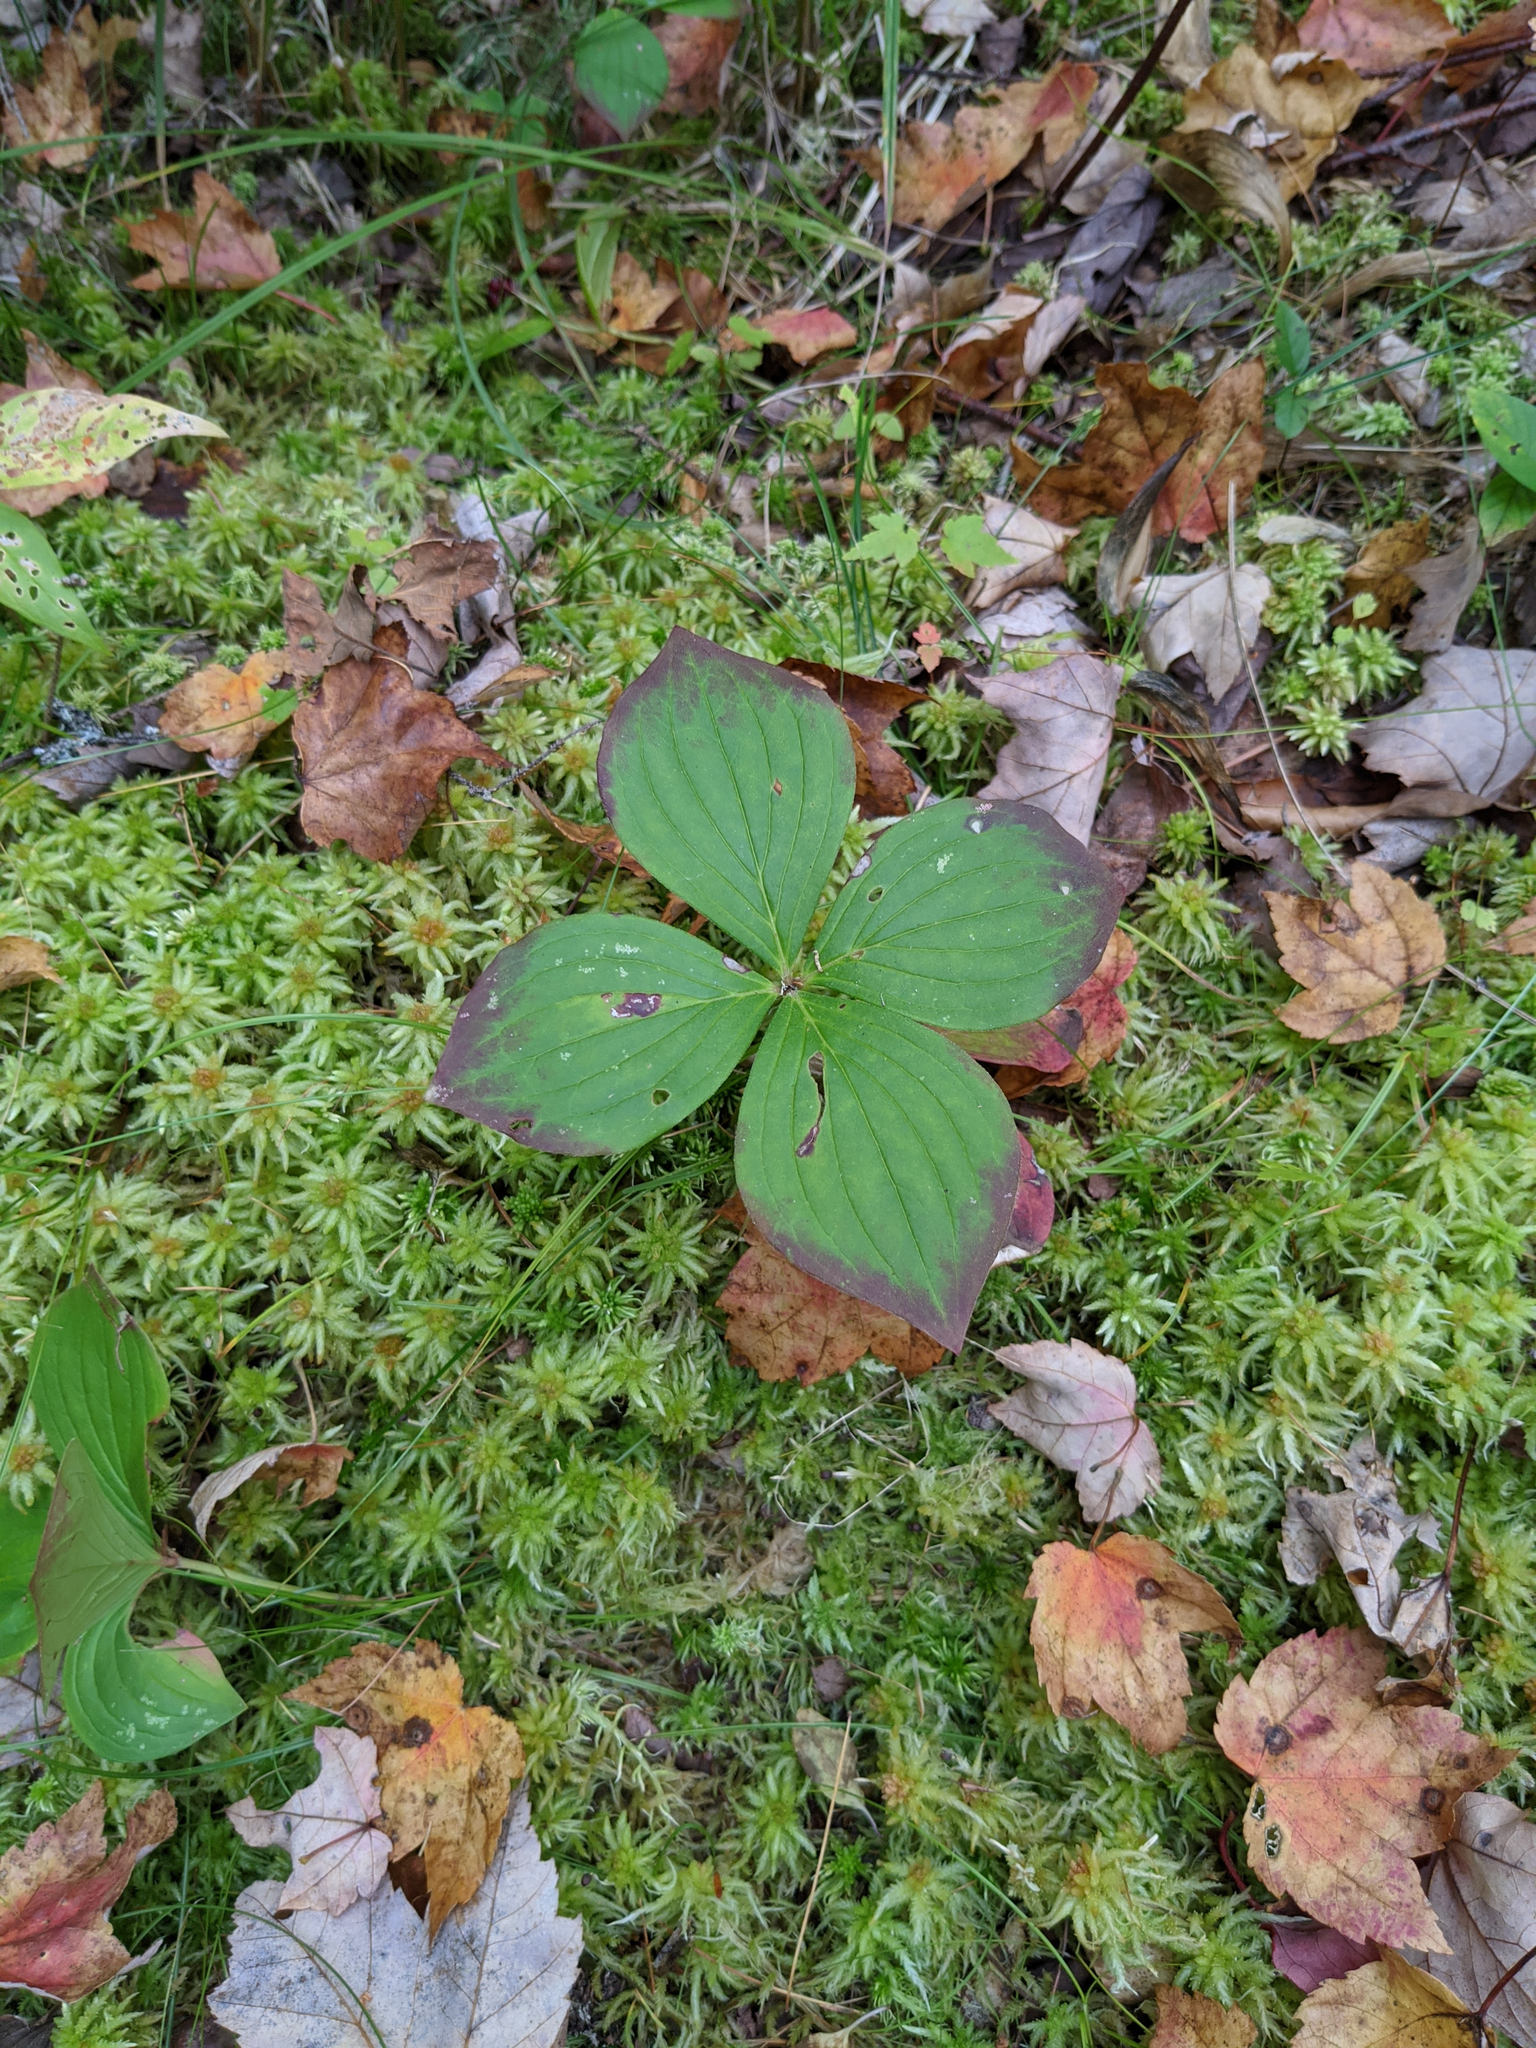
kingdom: Plantae
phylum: Tracheophyta
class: Magnoliopsida
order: Cornales
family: Cornaceae
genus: Cornus
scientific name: Cornus canadensis
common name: Creeping dogwood
